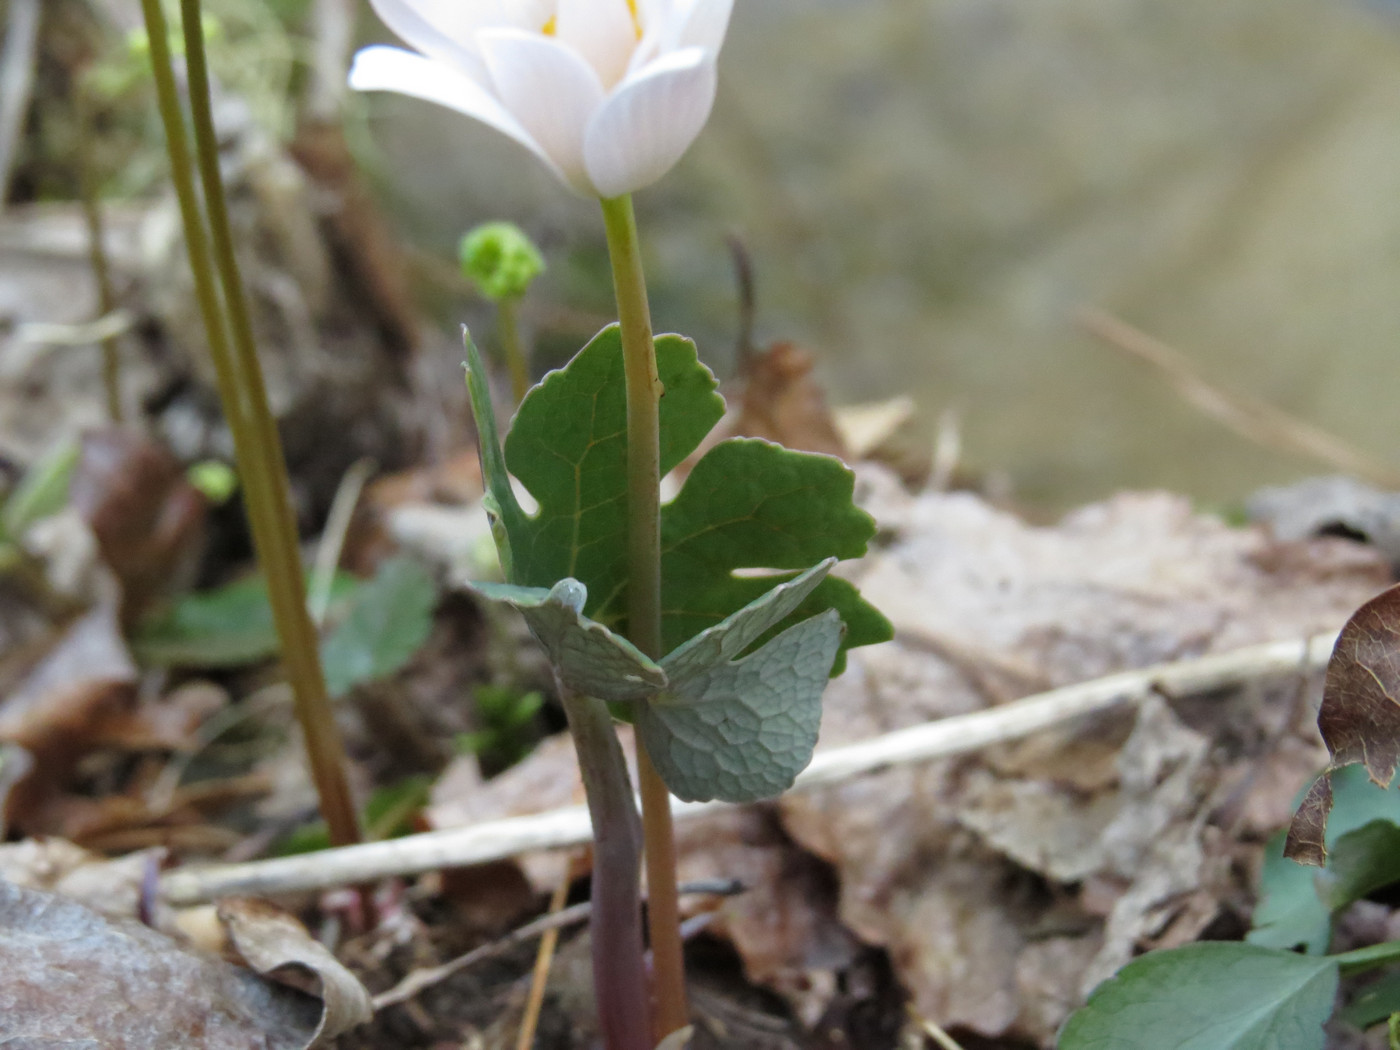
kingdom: Plantae
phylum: Tracheophyta
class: Magnoliopsida
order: Ranunculales
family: Papaveraceae
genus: Sanguinaria
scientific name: Sanguinaria canadensis
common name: Bloodroot
